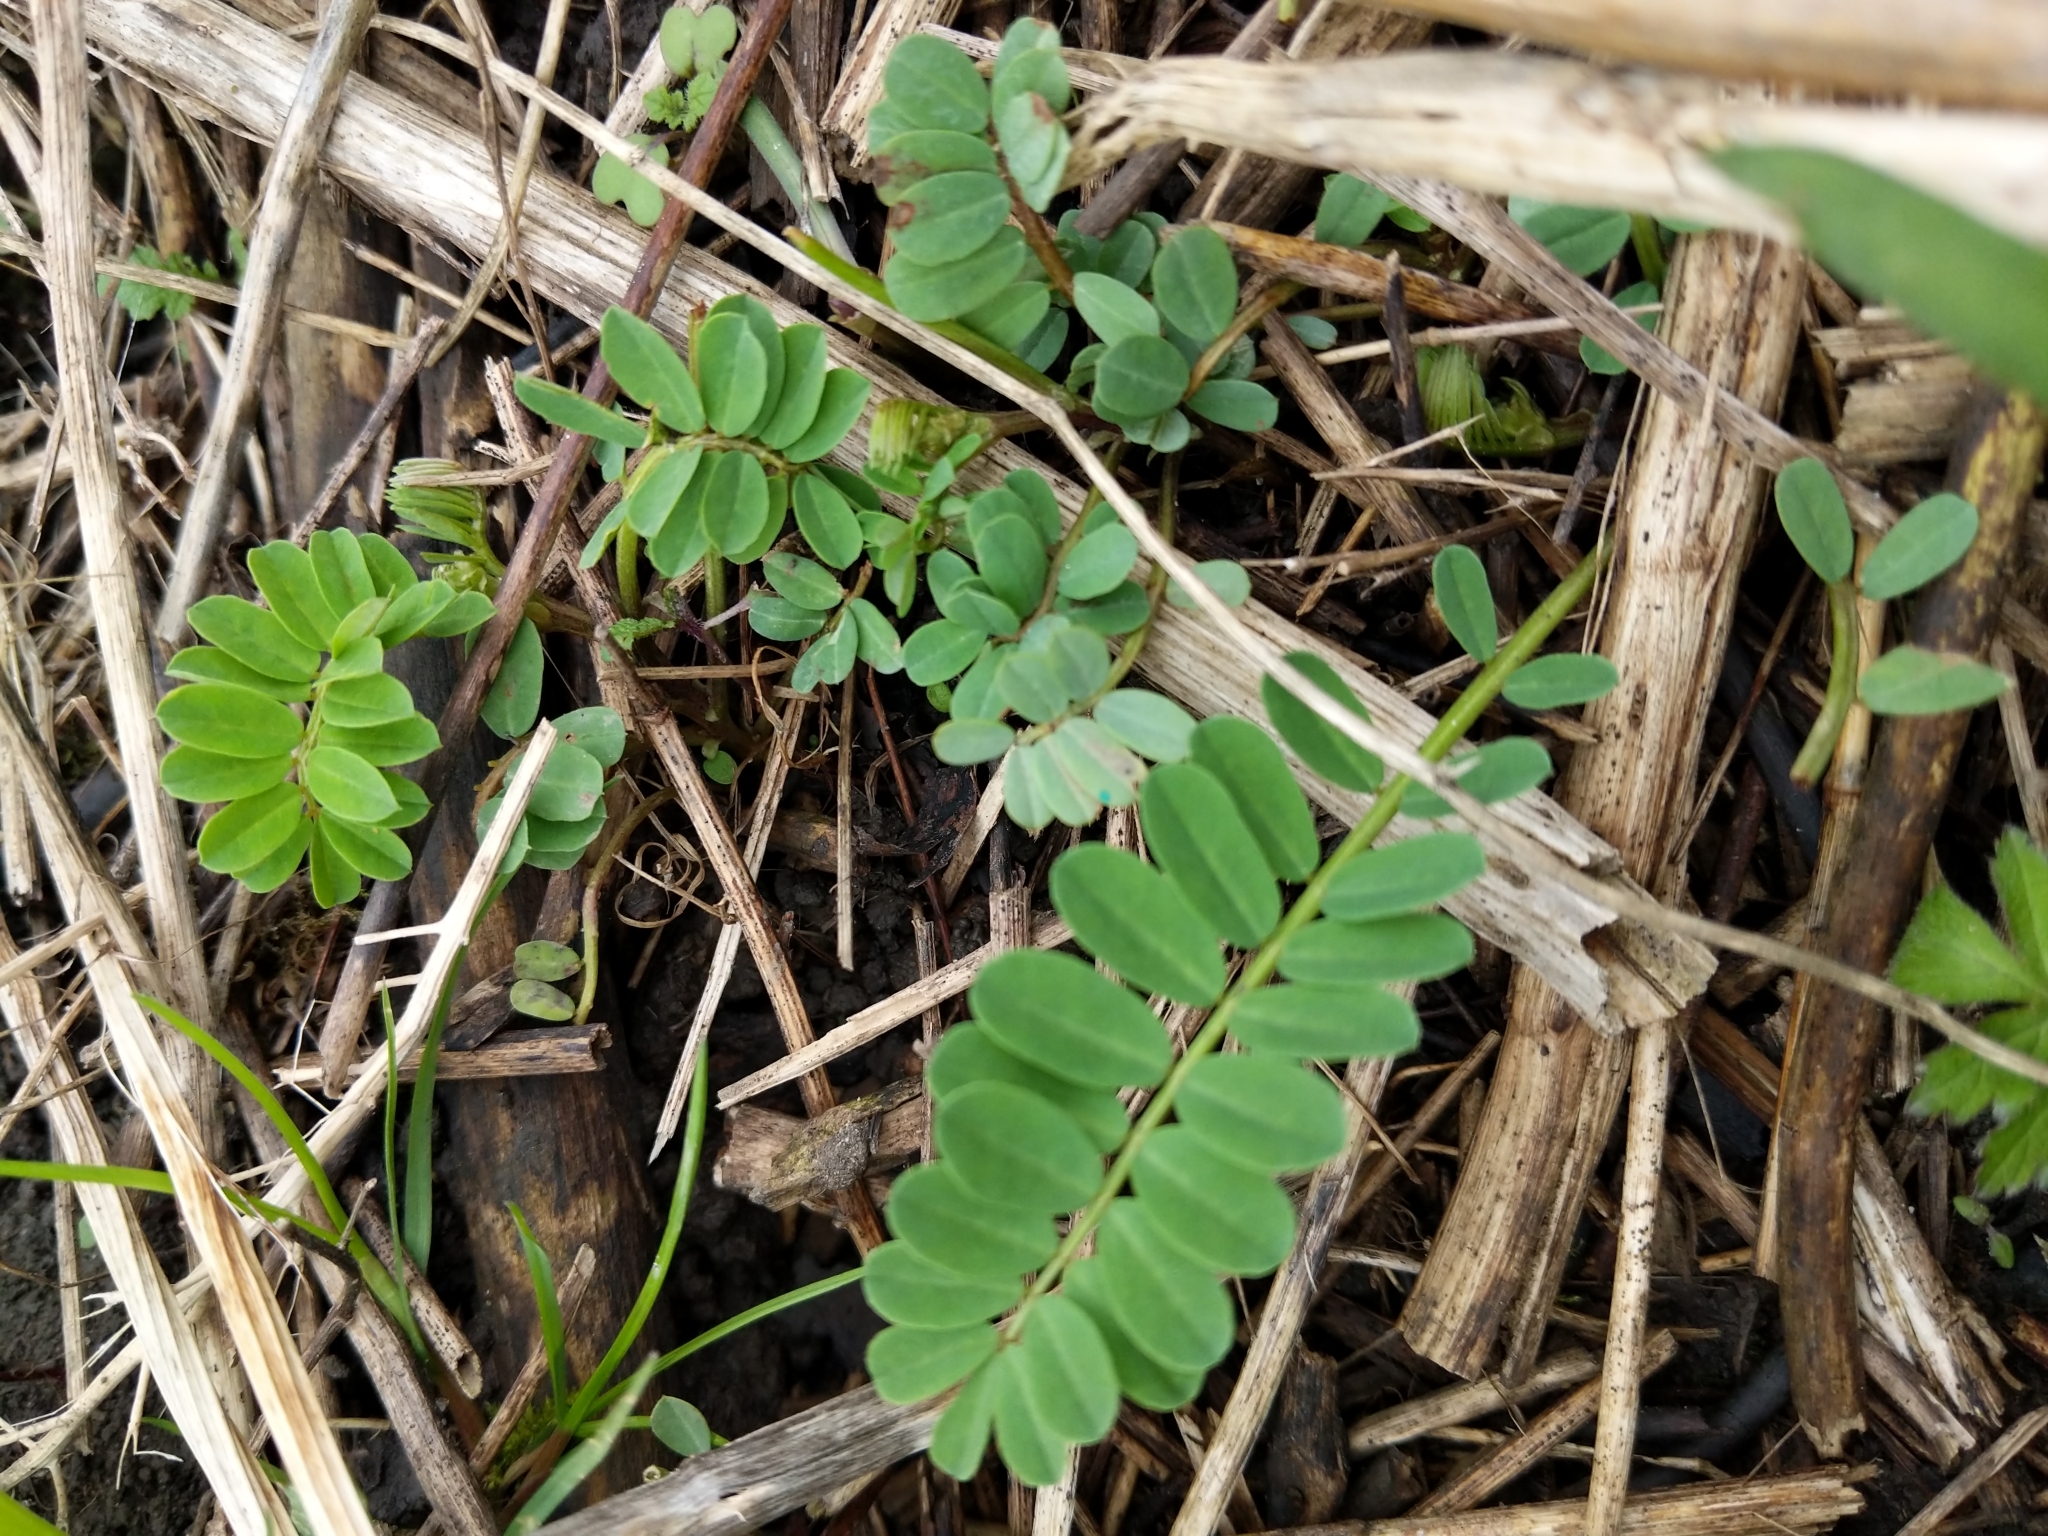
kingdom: Plantae
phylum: Tracheophyta
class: Magnoliopsida
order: Fabales
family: Fabaceae
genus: Coronilla
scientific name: Coronilla varia
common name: Crownvetch
